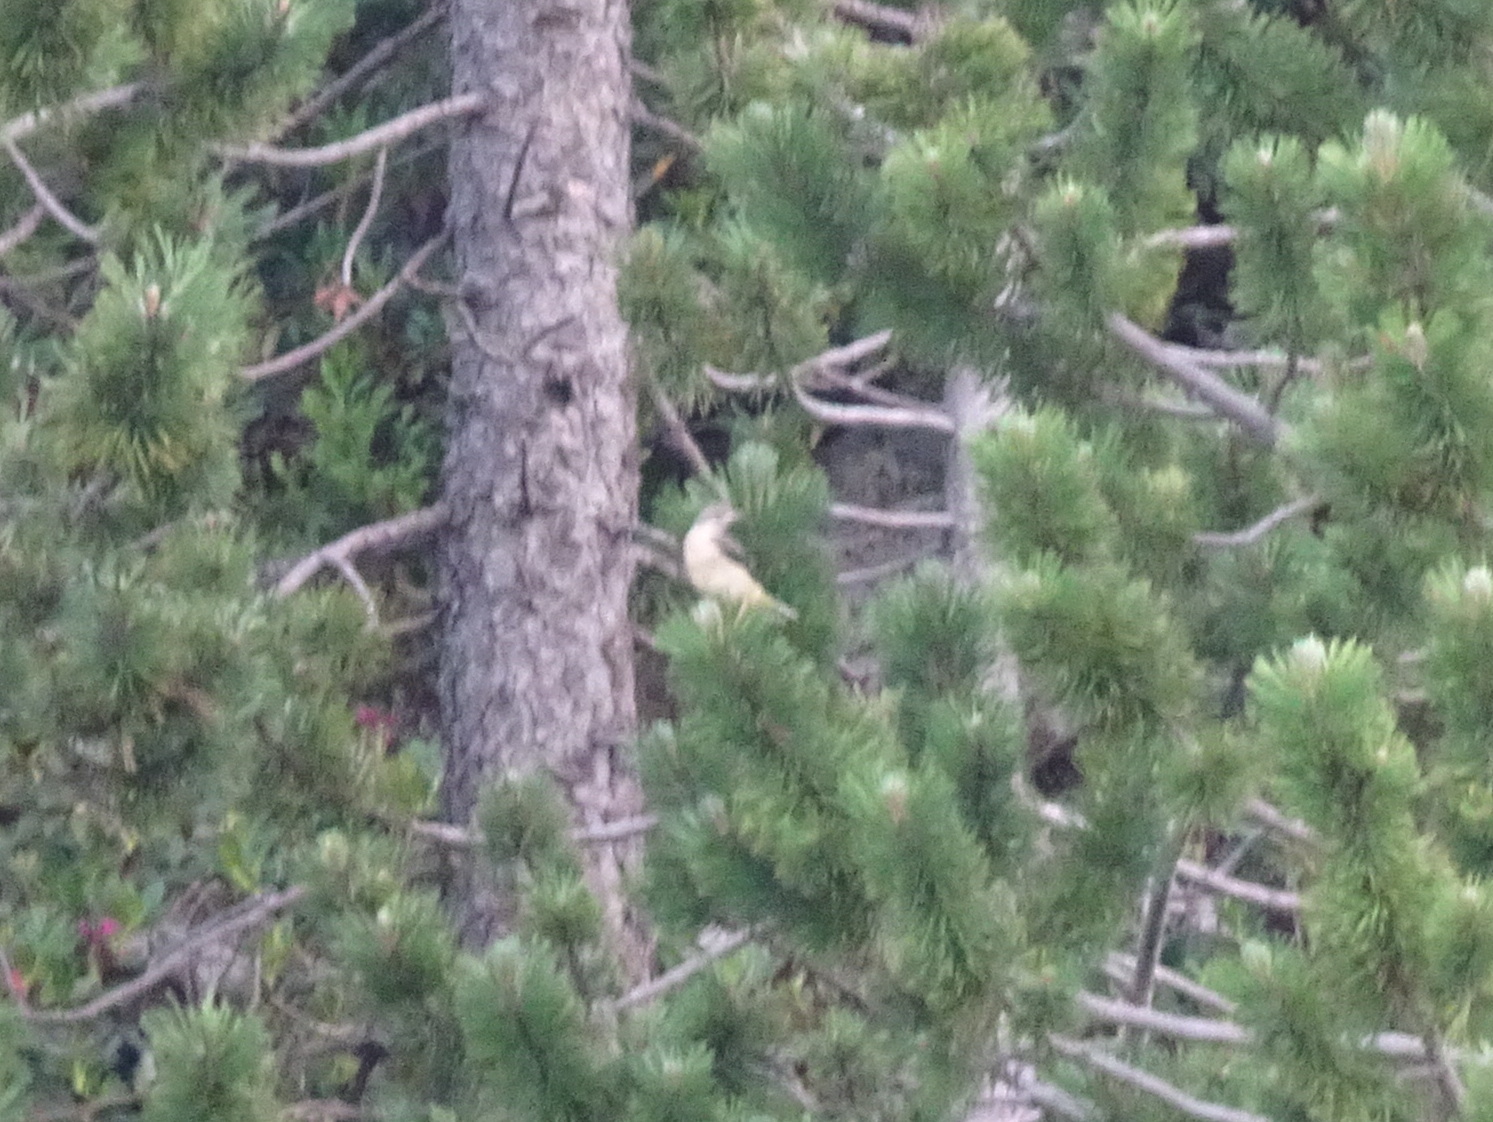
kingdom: Animalia
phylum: Chordata
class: Aves
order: Passeriformes
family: Motacillidae
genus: Motacilla
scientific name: Motacilla cinerea
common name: Grey wagtail
